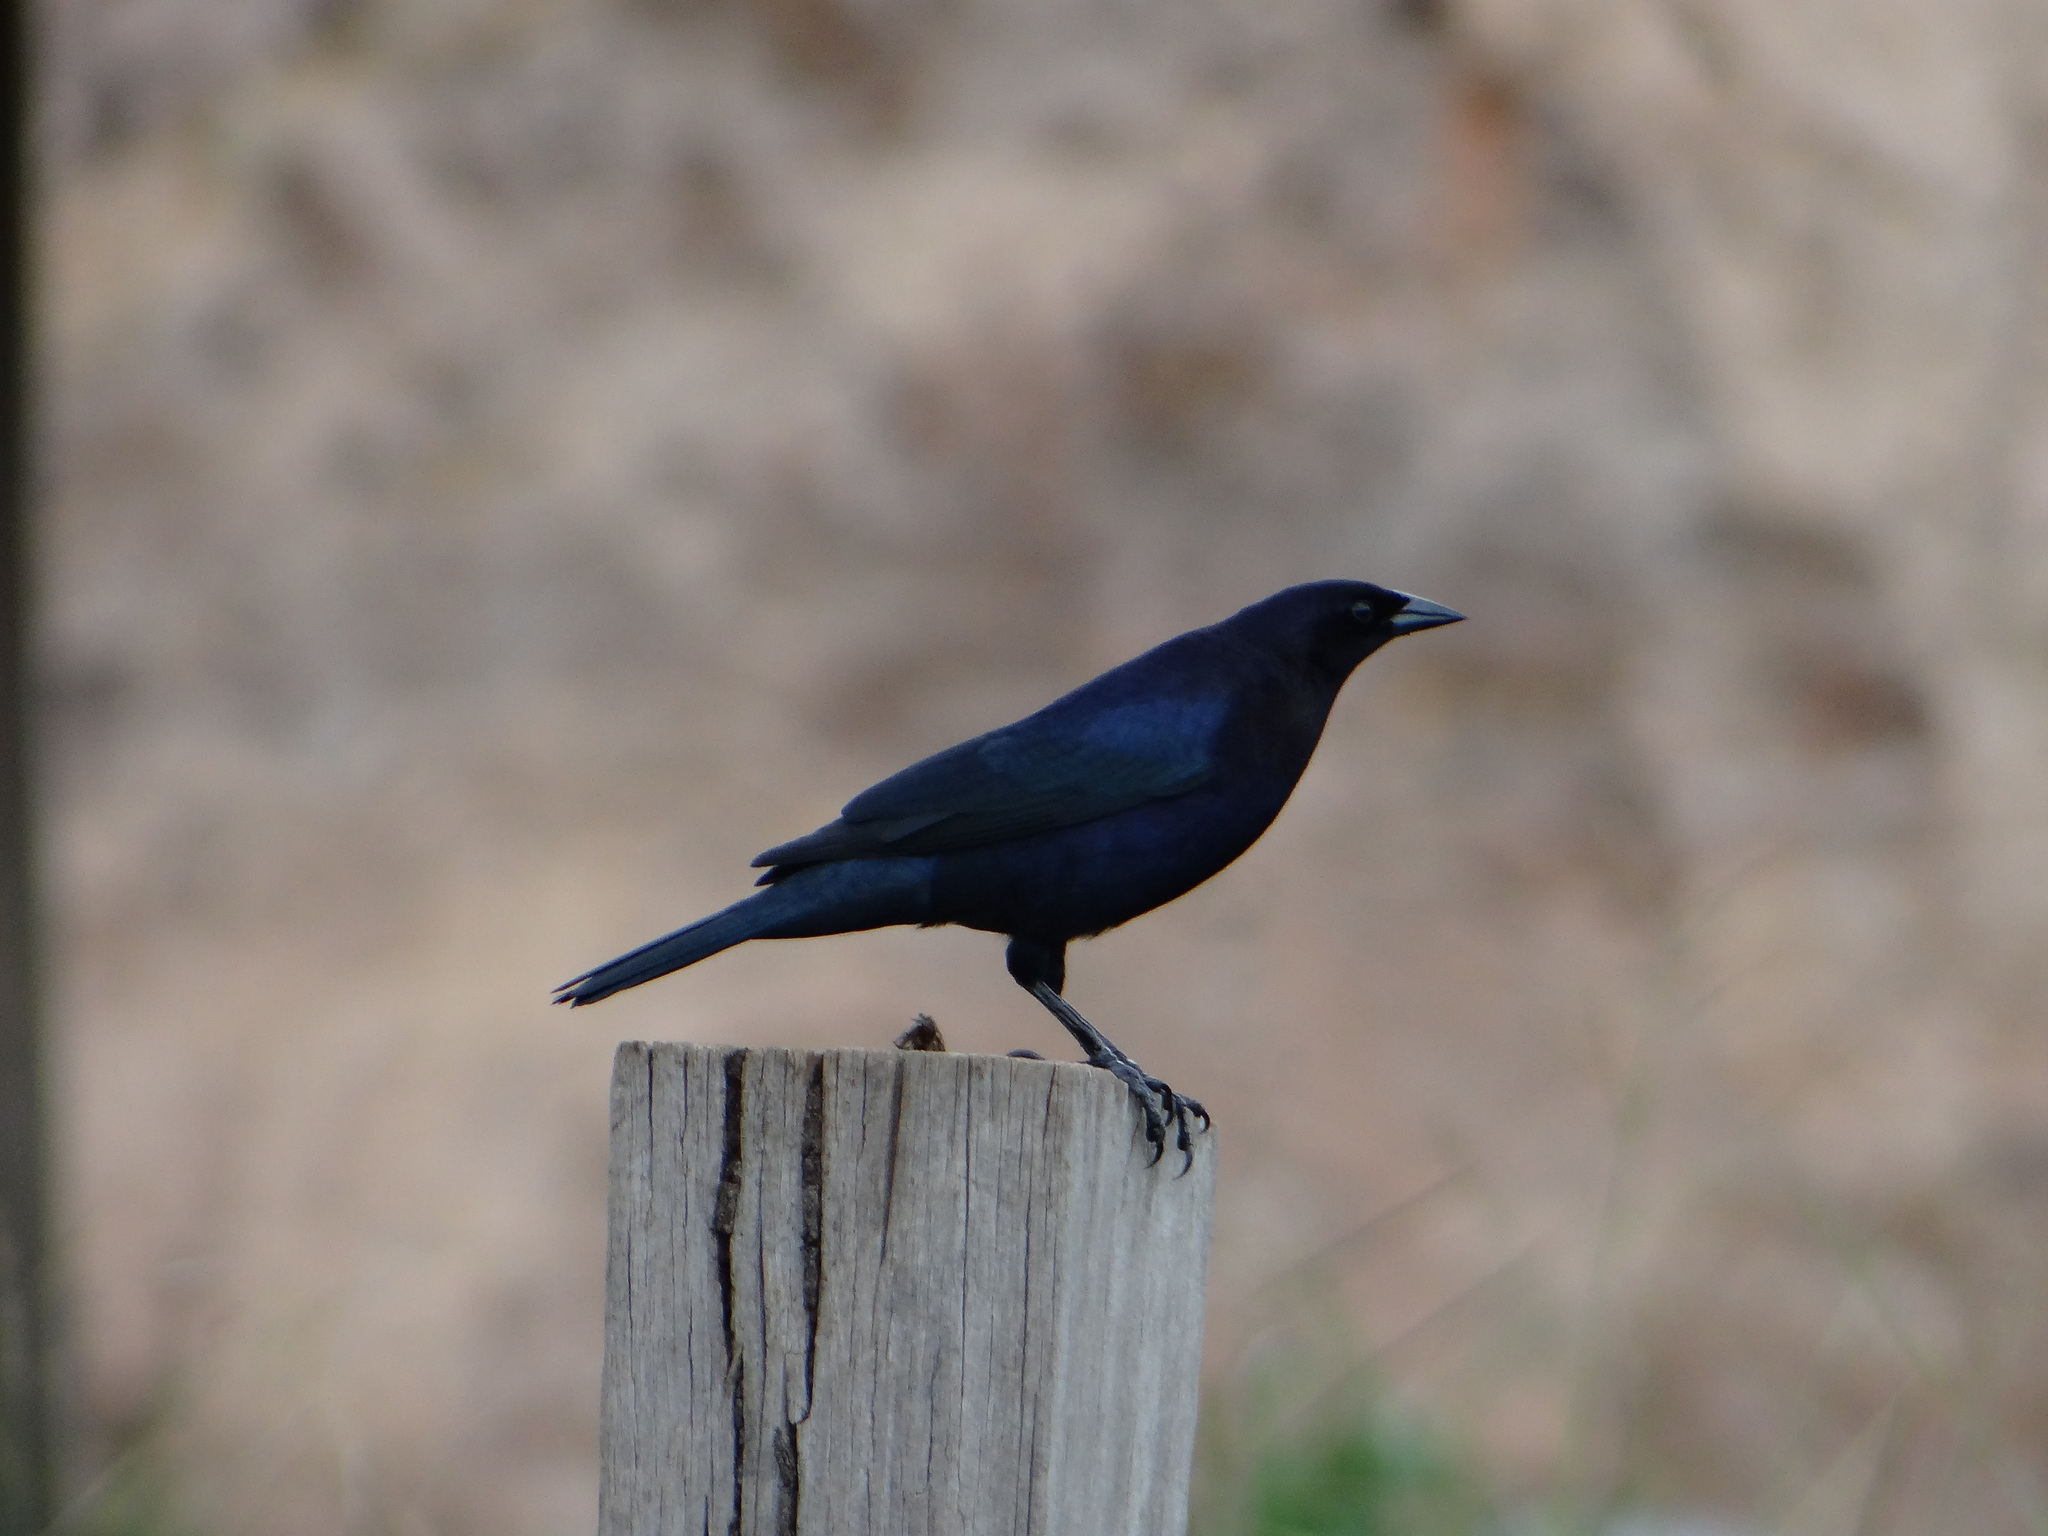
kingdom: Animalia
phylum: Chordata
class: Aves
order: Passeriformes
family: Icteridae
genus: Molothrus
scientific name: Molothrus bonariensis
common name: Shiny cowbird
